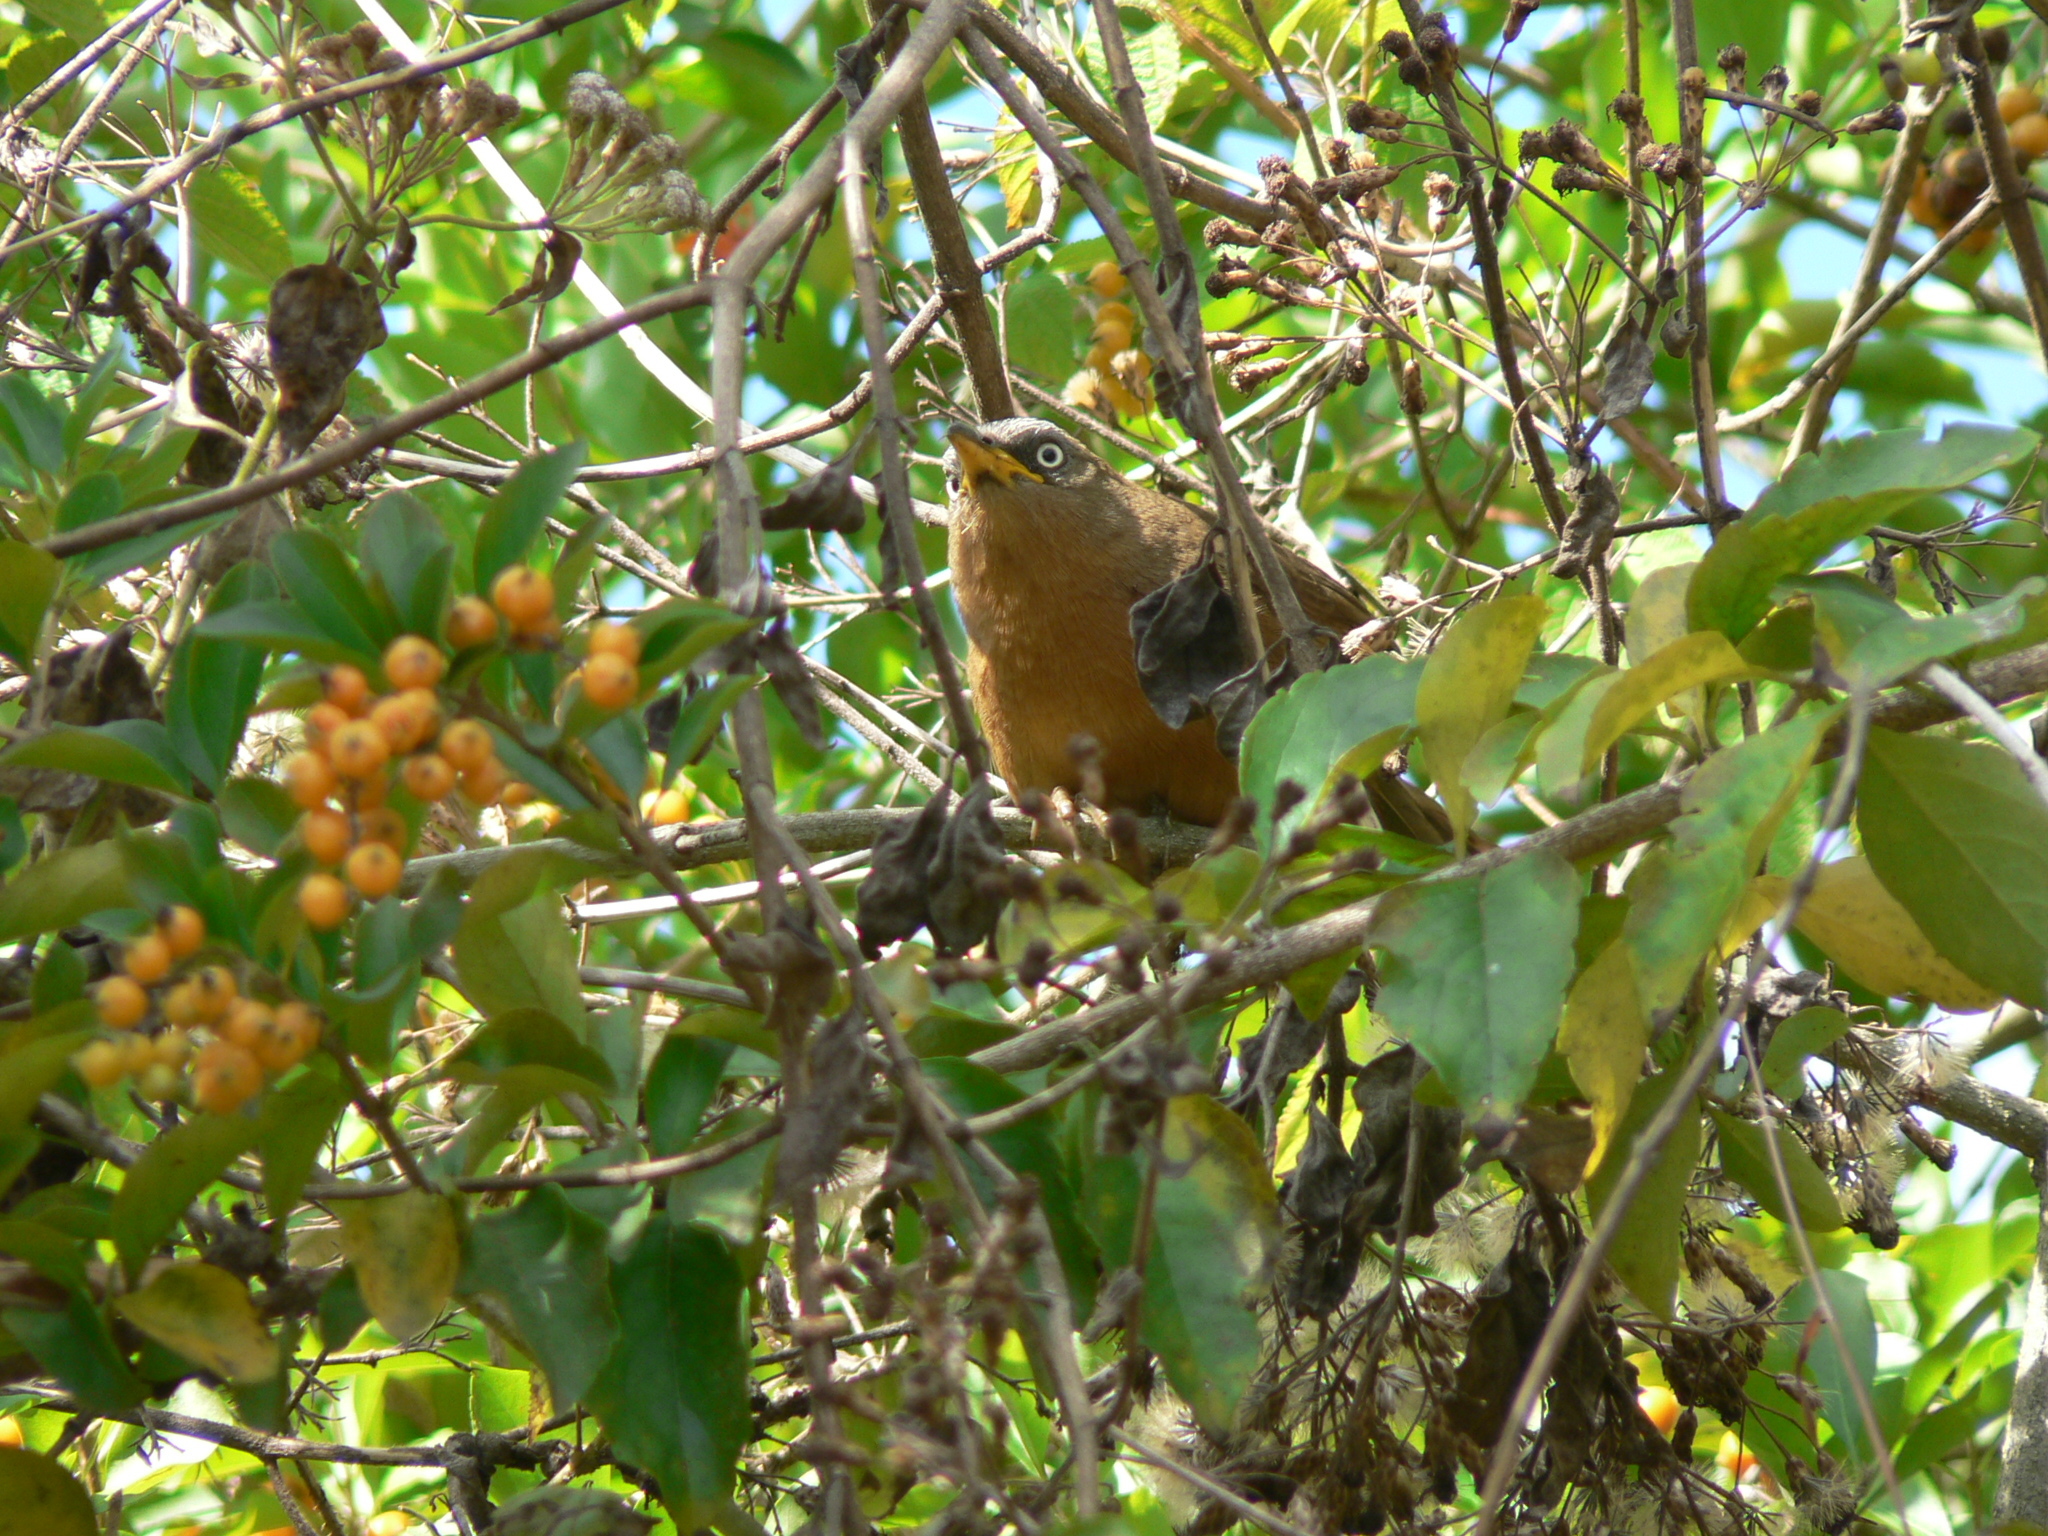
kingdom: Animalia
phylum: Chordata
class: Aves
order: Passeriformes
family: Leiothrichidae
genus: Turdoides
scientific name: Turdoides subrufa
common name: Rufous babbler
